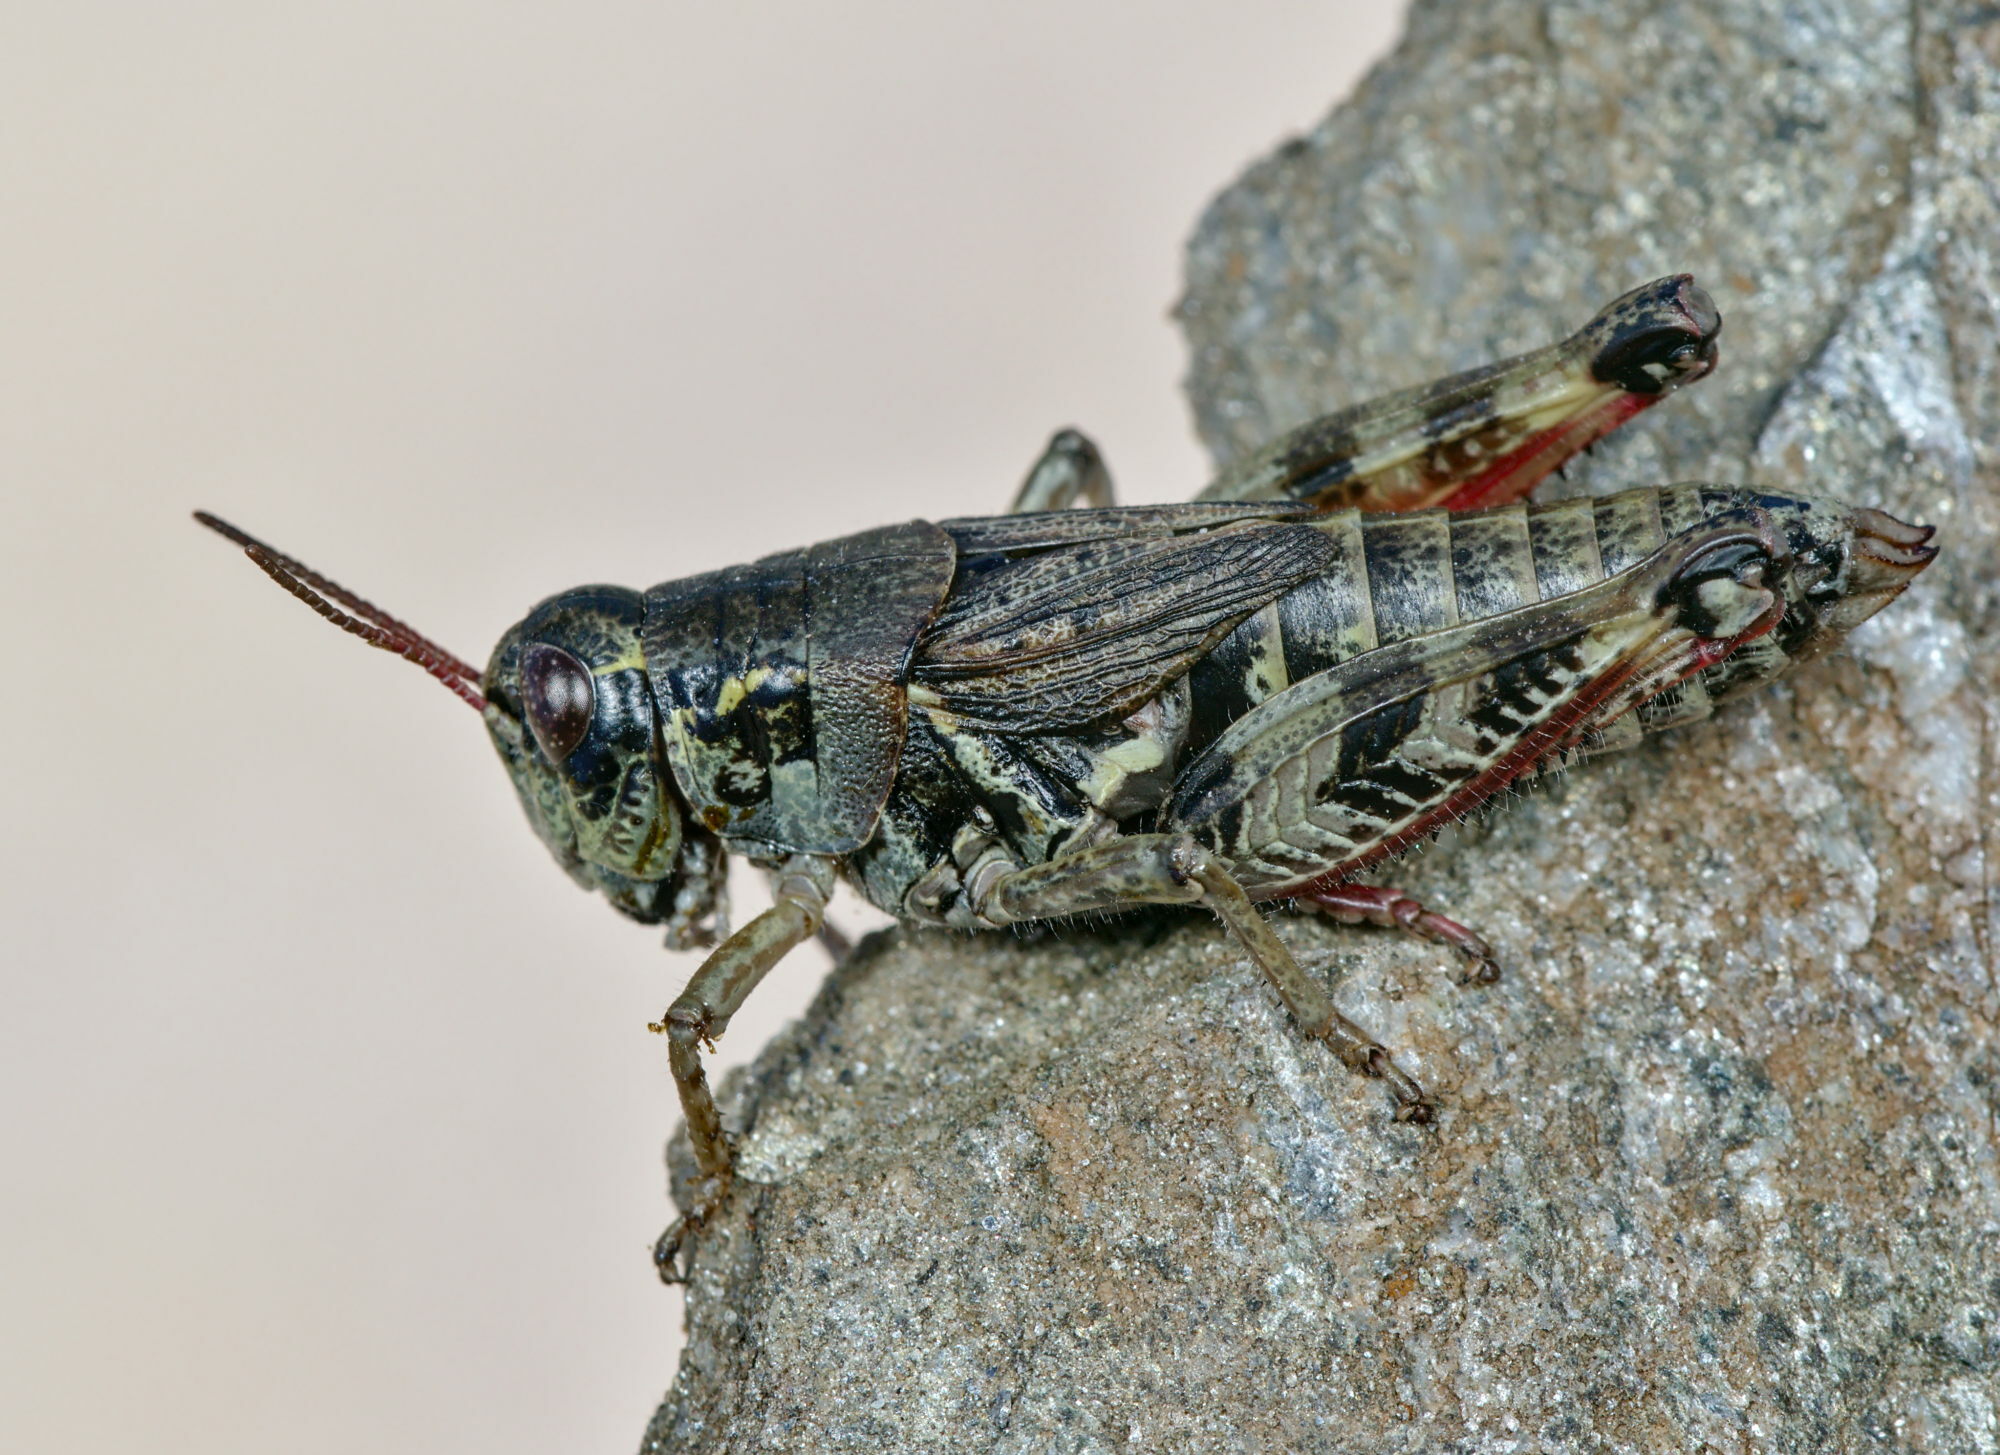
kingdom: Animalia
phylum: Arthropoda
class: Insecta
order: Orthoptera
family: Acrididae
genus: Bohemanella
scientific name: Bohemanella frigida
